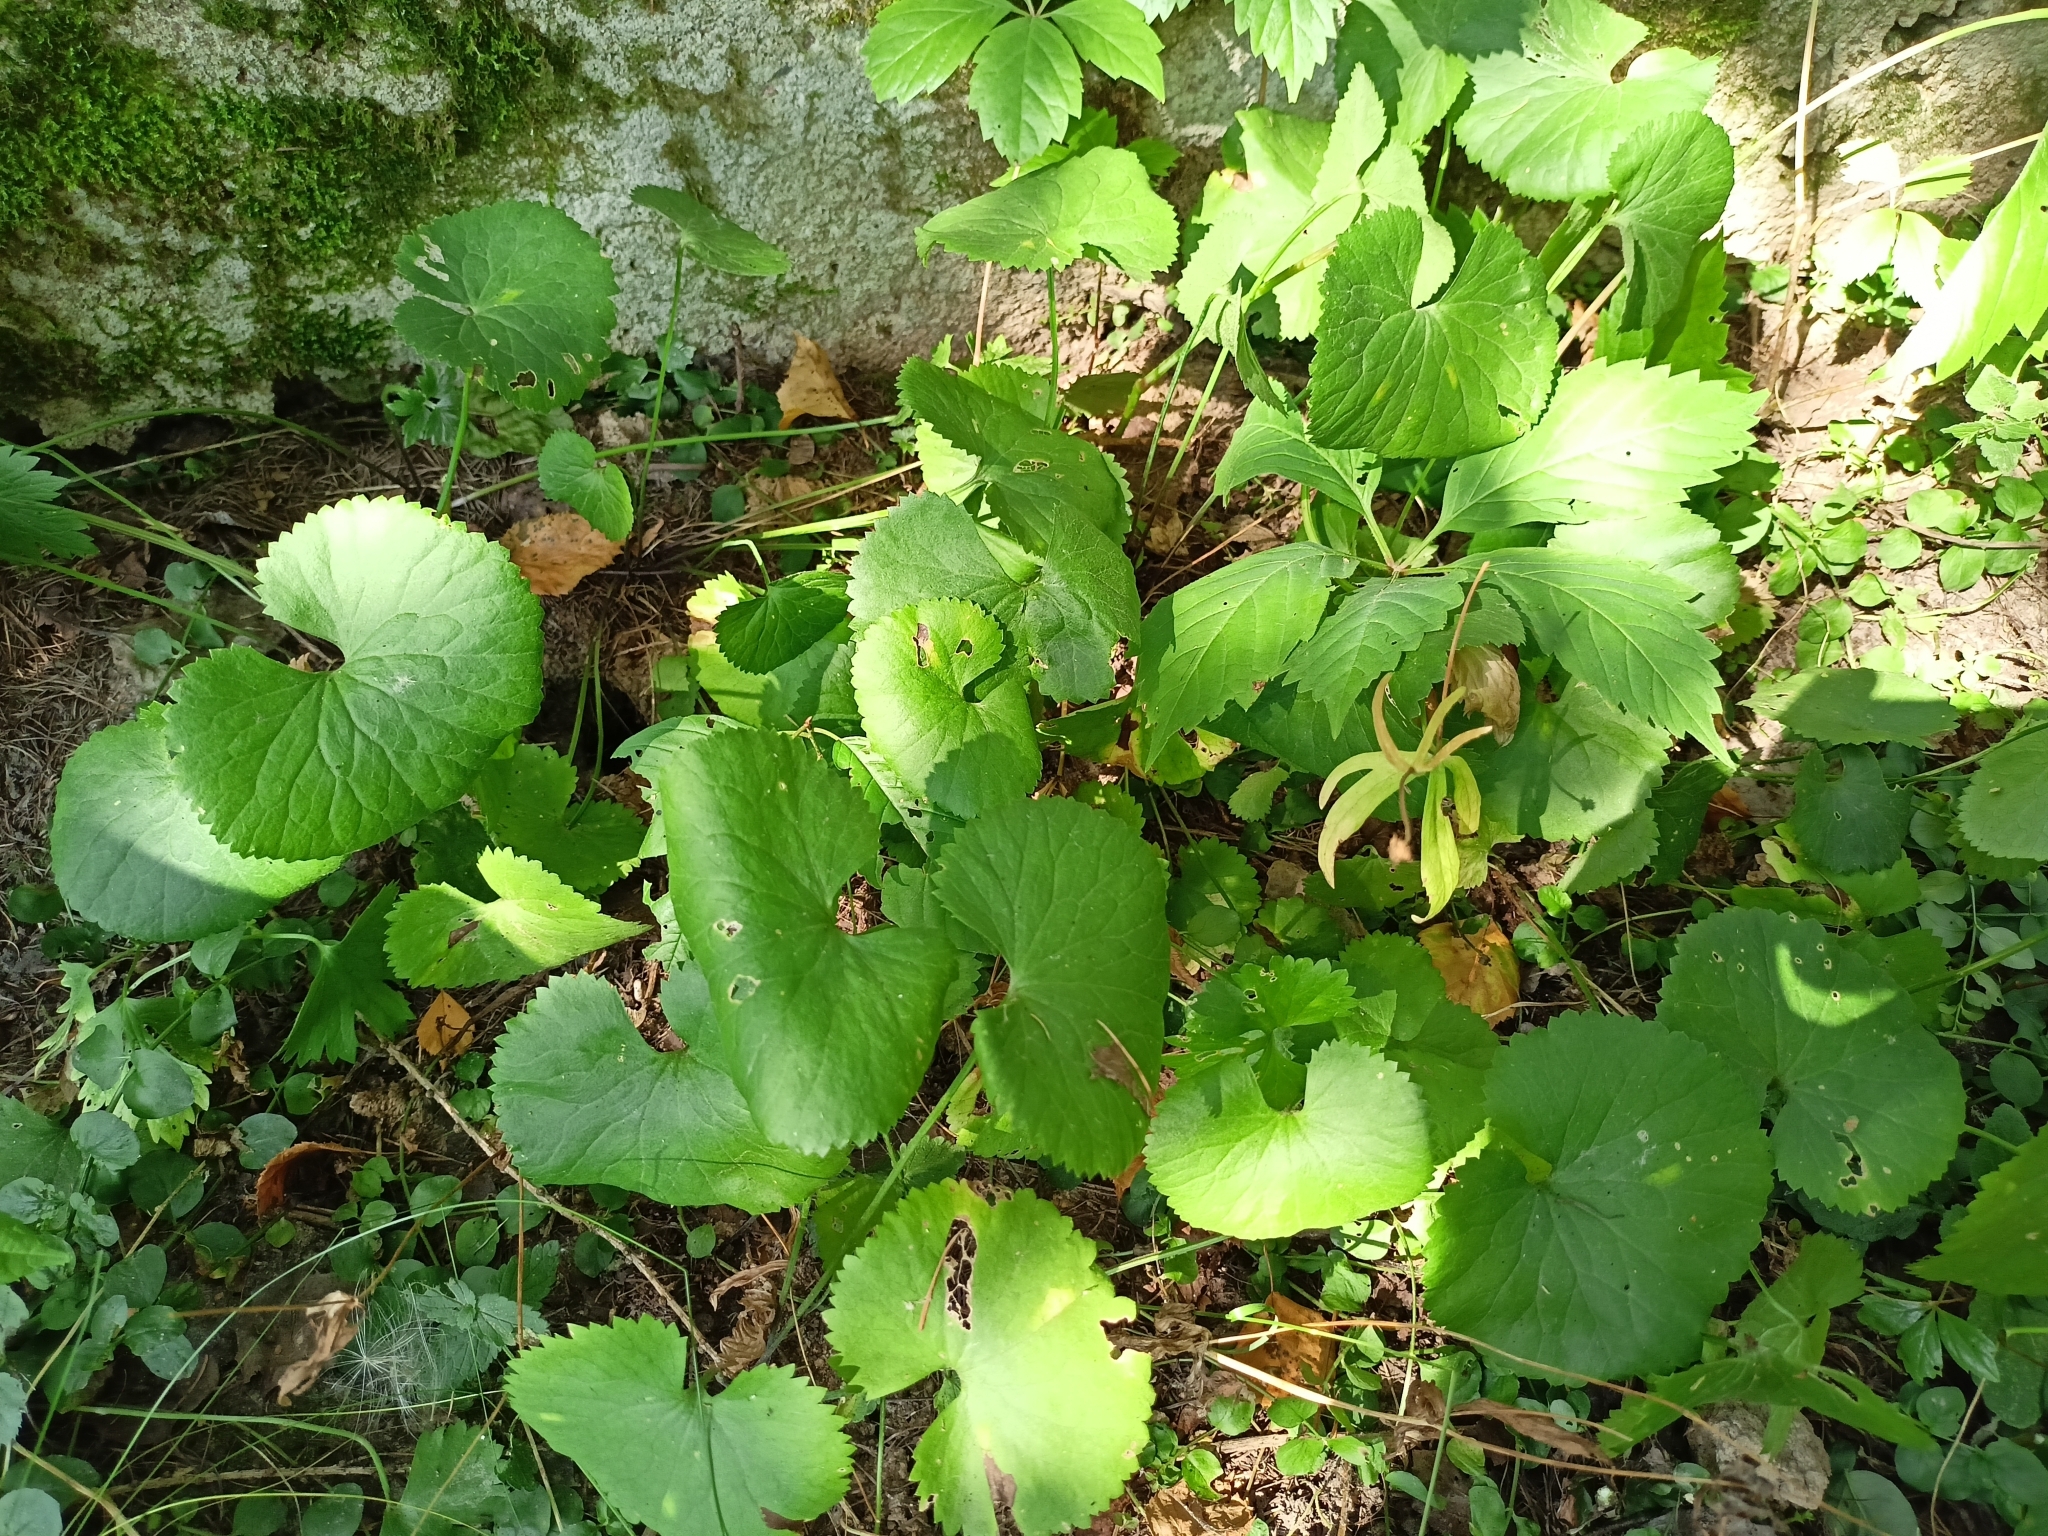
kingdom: Plantae
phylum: Tracheophyta
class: Magnoliopsida
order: Ranunculales
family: Ranunculaceae
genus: Ranunculus
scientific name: Ranunculus cassubicus
